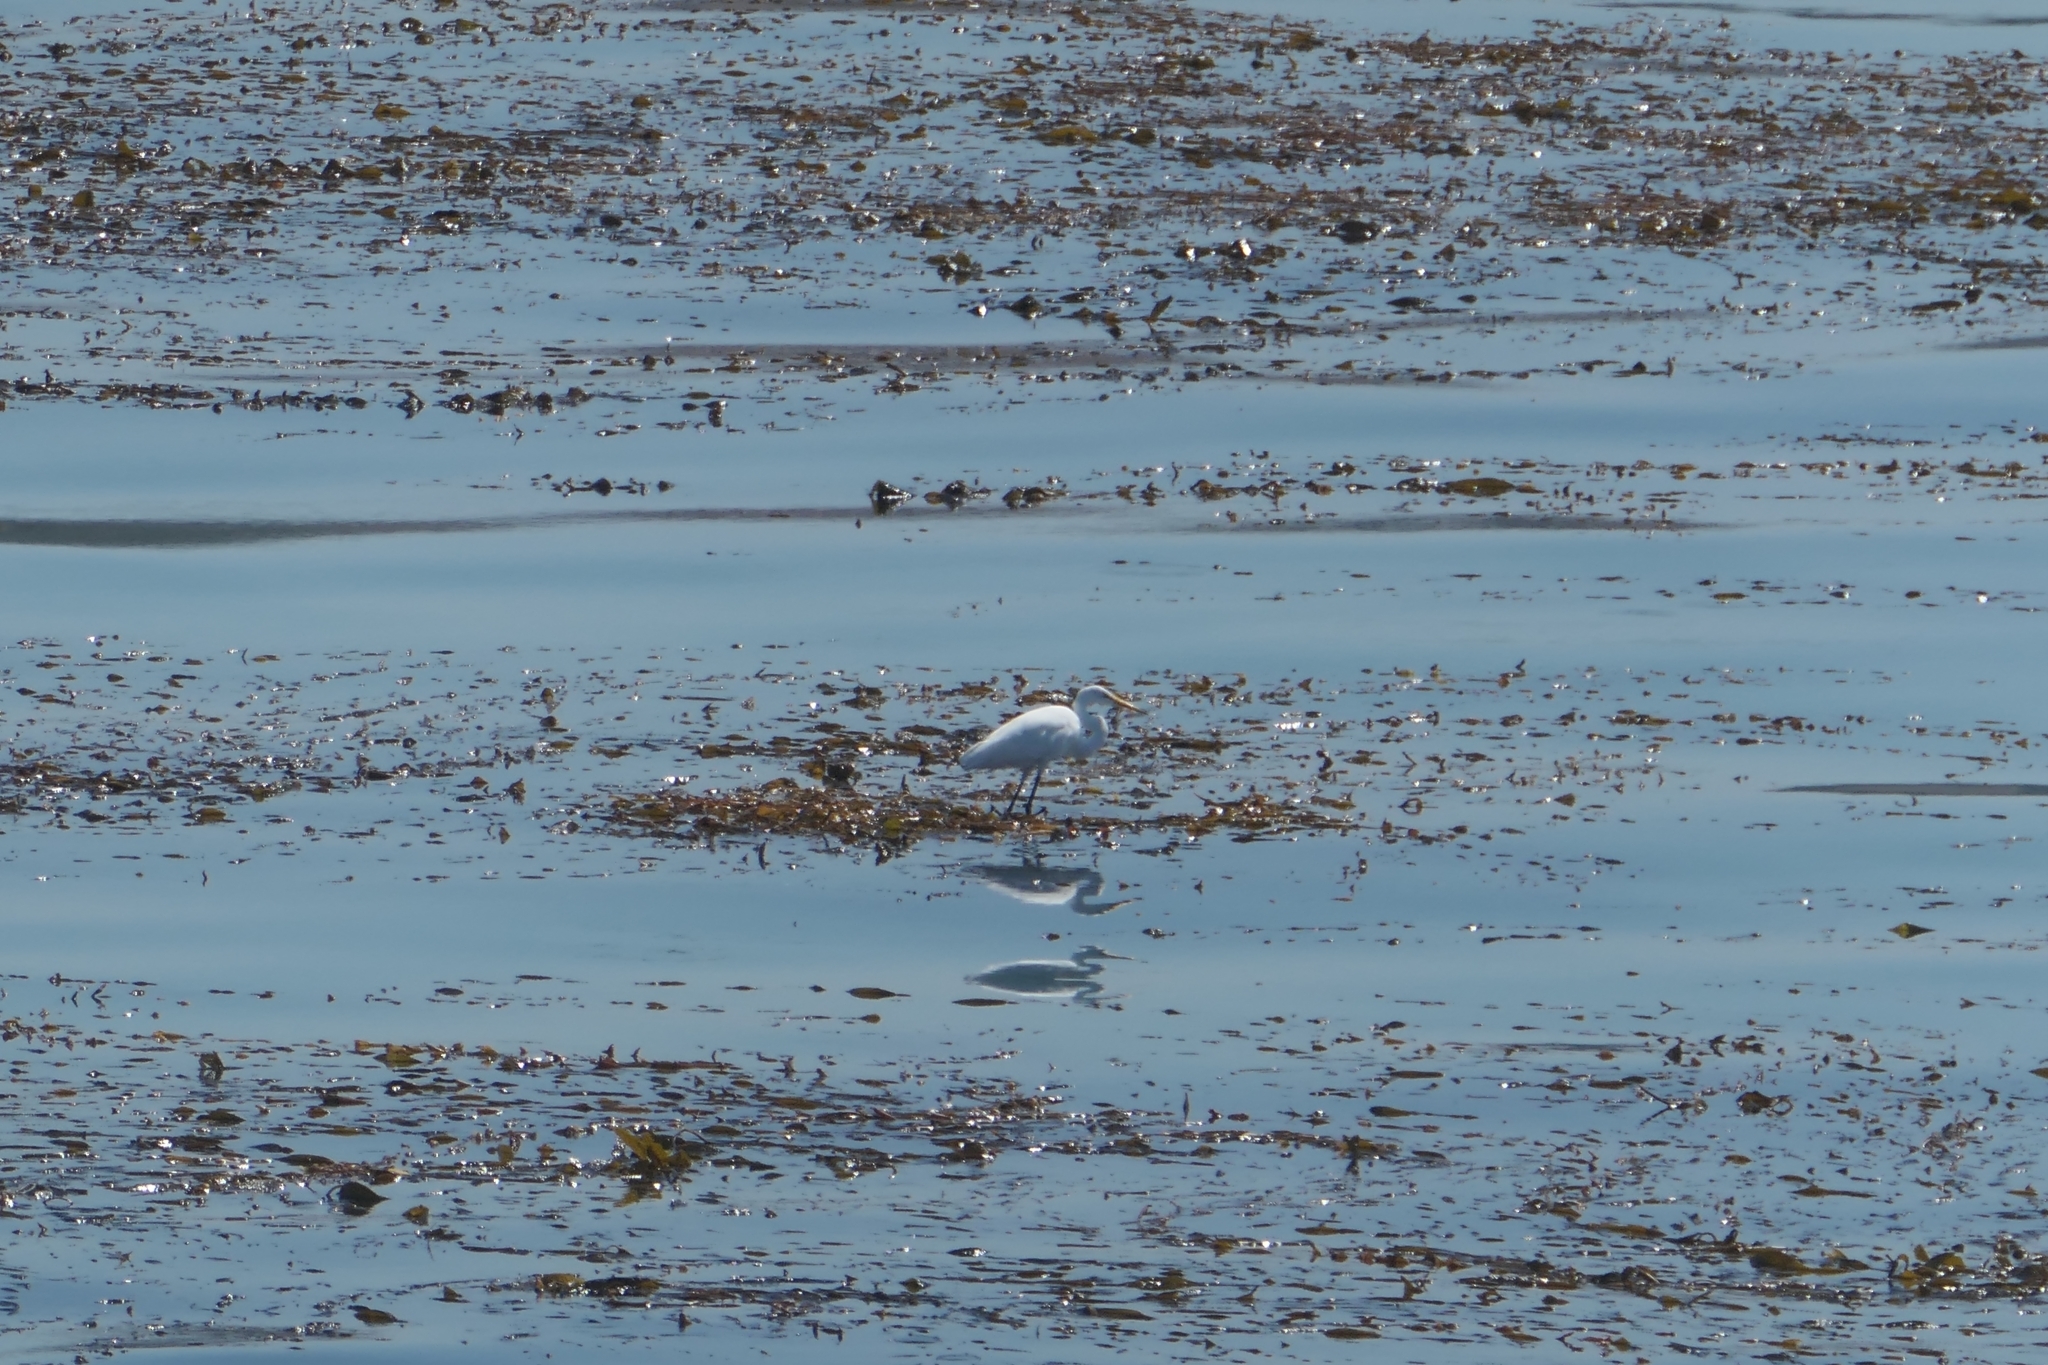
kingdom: Animalia
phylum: Chordata
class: Aves
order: Pelecaniformes
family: Ardeidae
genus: Ardea
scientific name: Ardea alba
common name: Great egret
